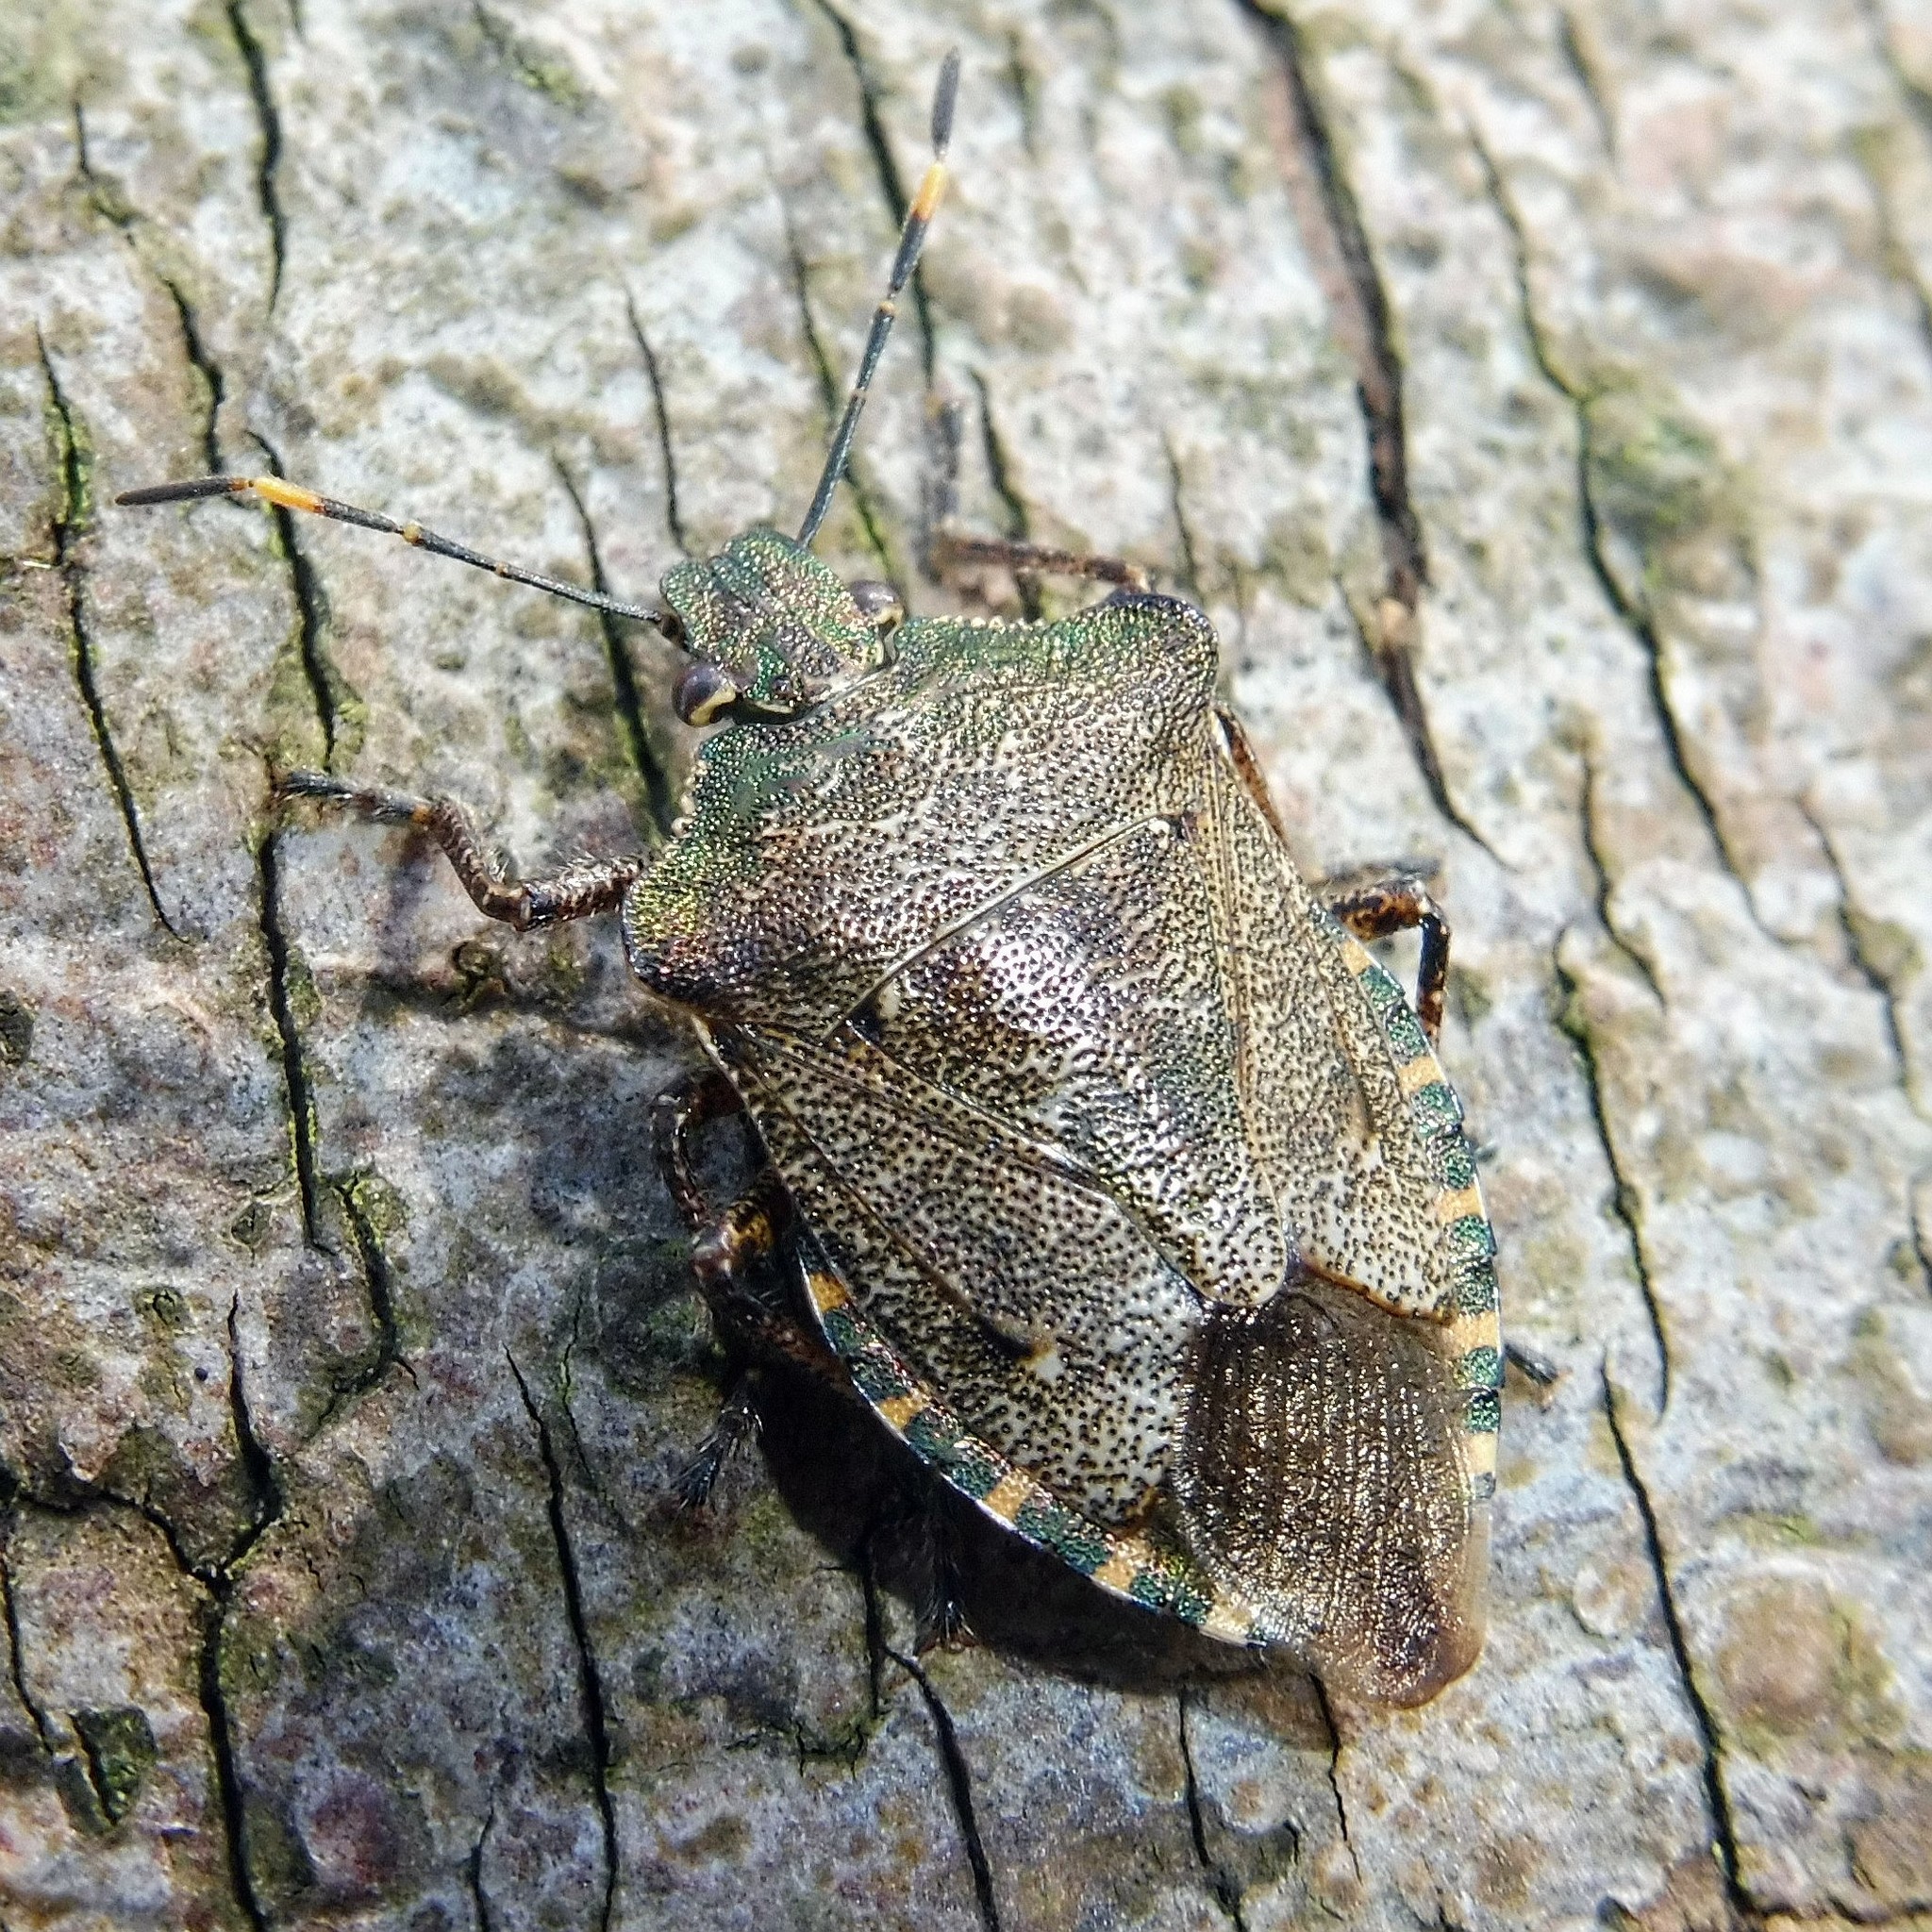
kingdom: Animalia
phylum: Arthropoda
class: Insecta
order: Hemiptera
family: Pentatomidae
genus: Troilus
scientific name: Troilus luridus
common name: Bronze shieldbug
